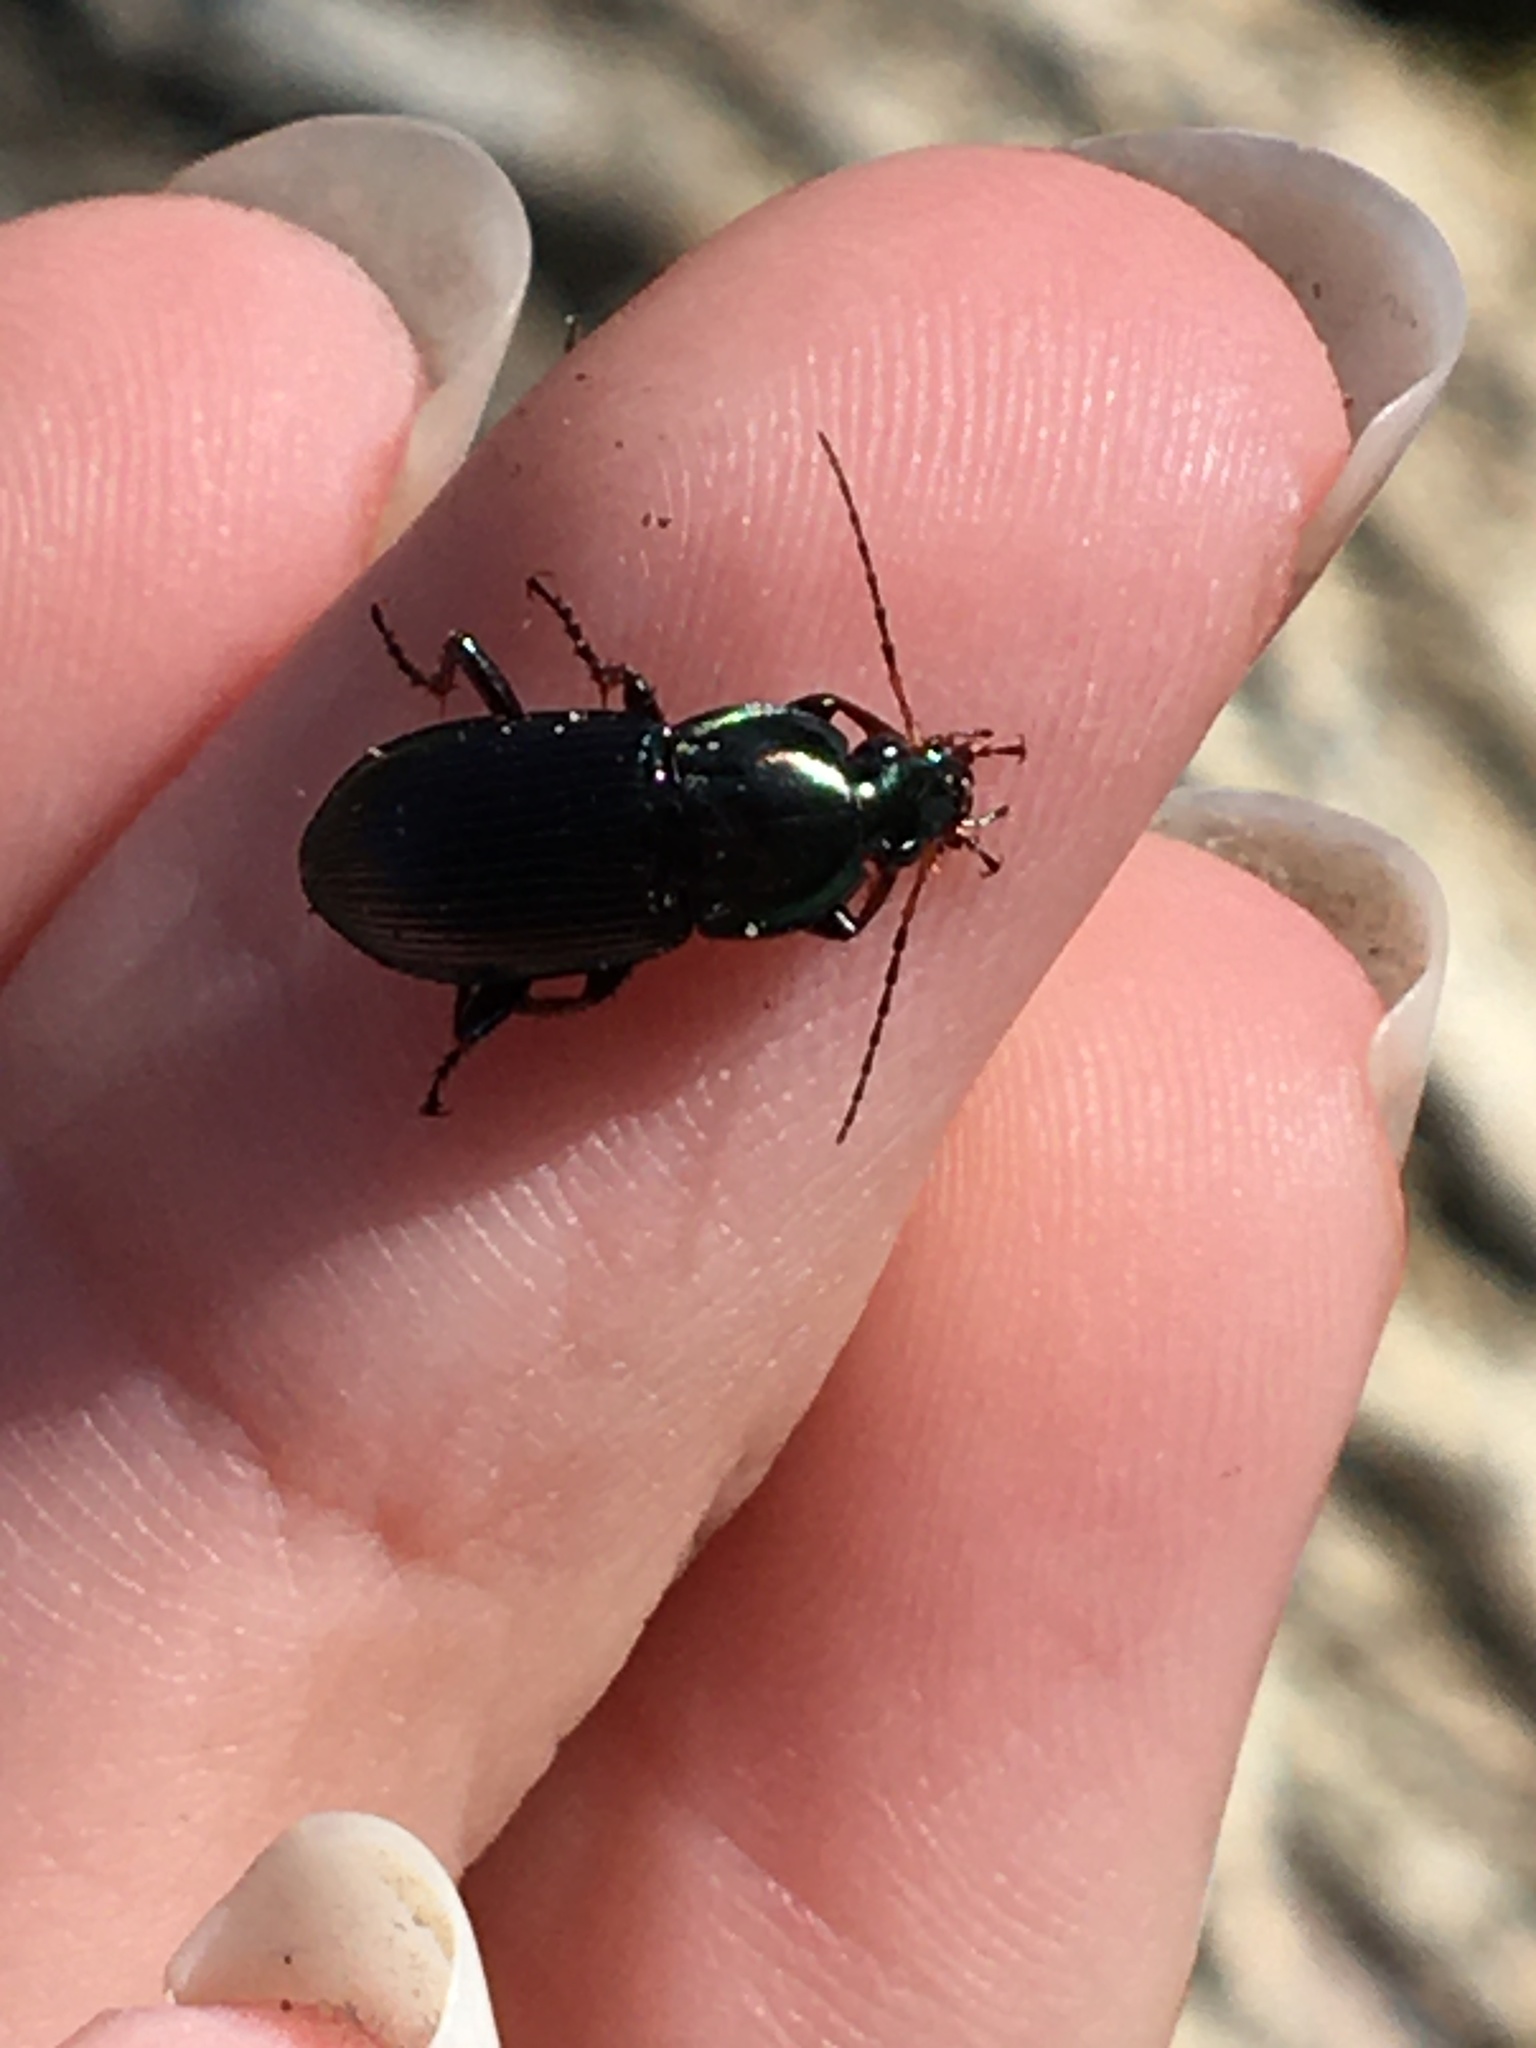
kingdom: Animalia
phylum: Arthropoda
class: Insecta
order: Coleoptera
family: Carabidae
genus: Poecilus
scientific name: Poecilus lucublandus
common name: Woodland ground beetle
